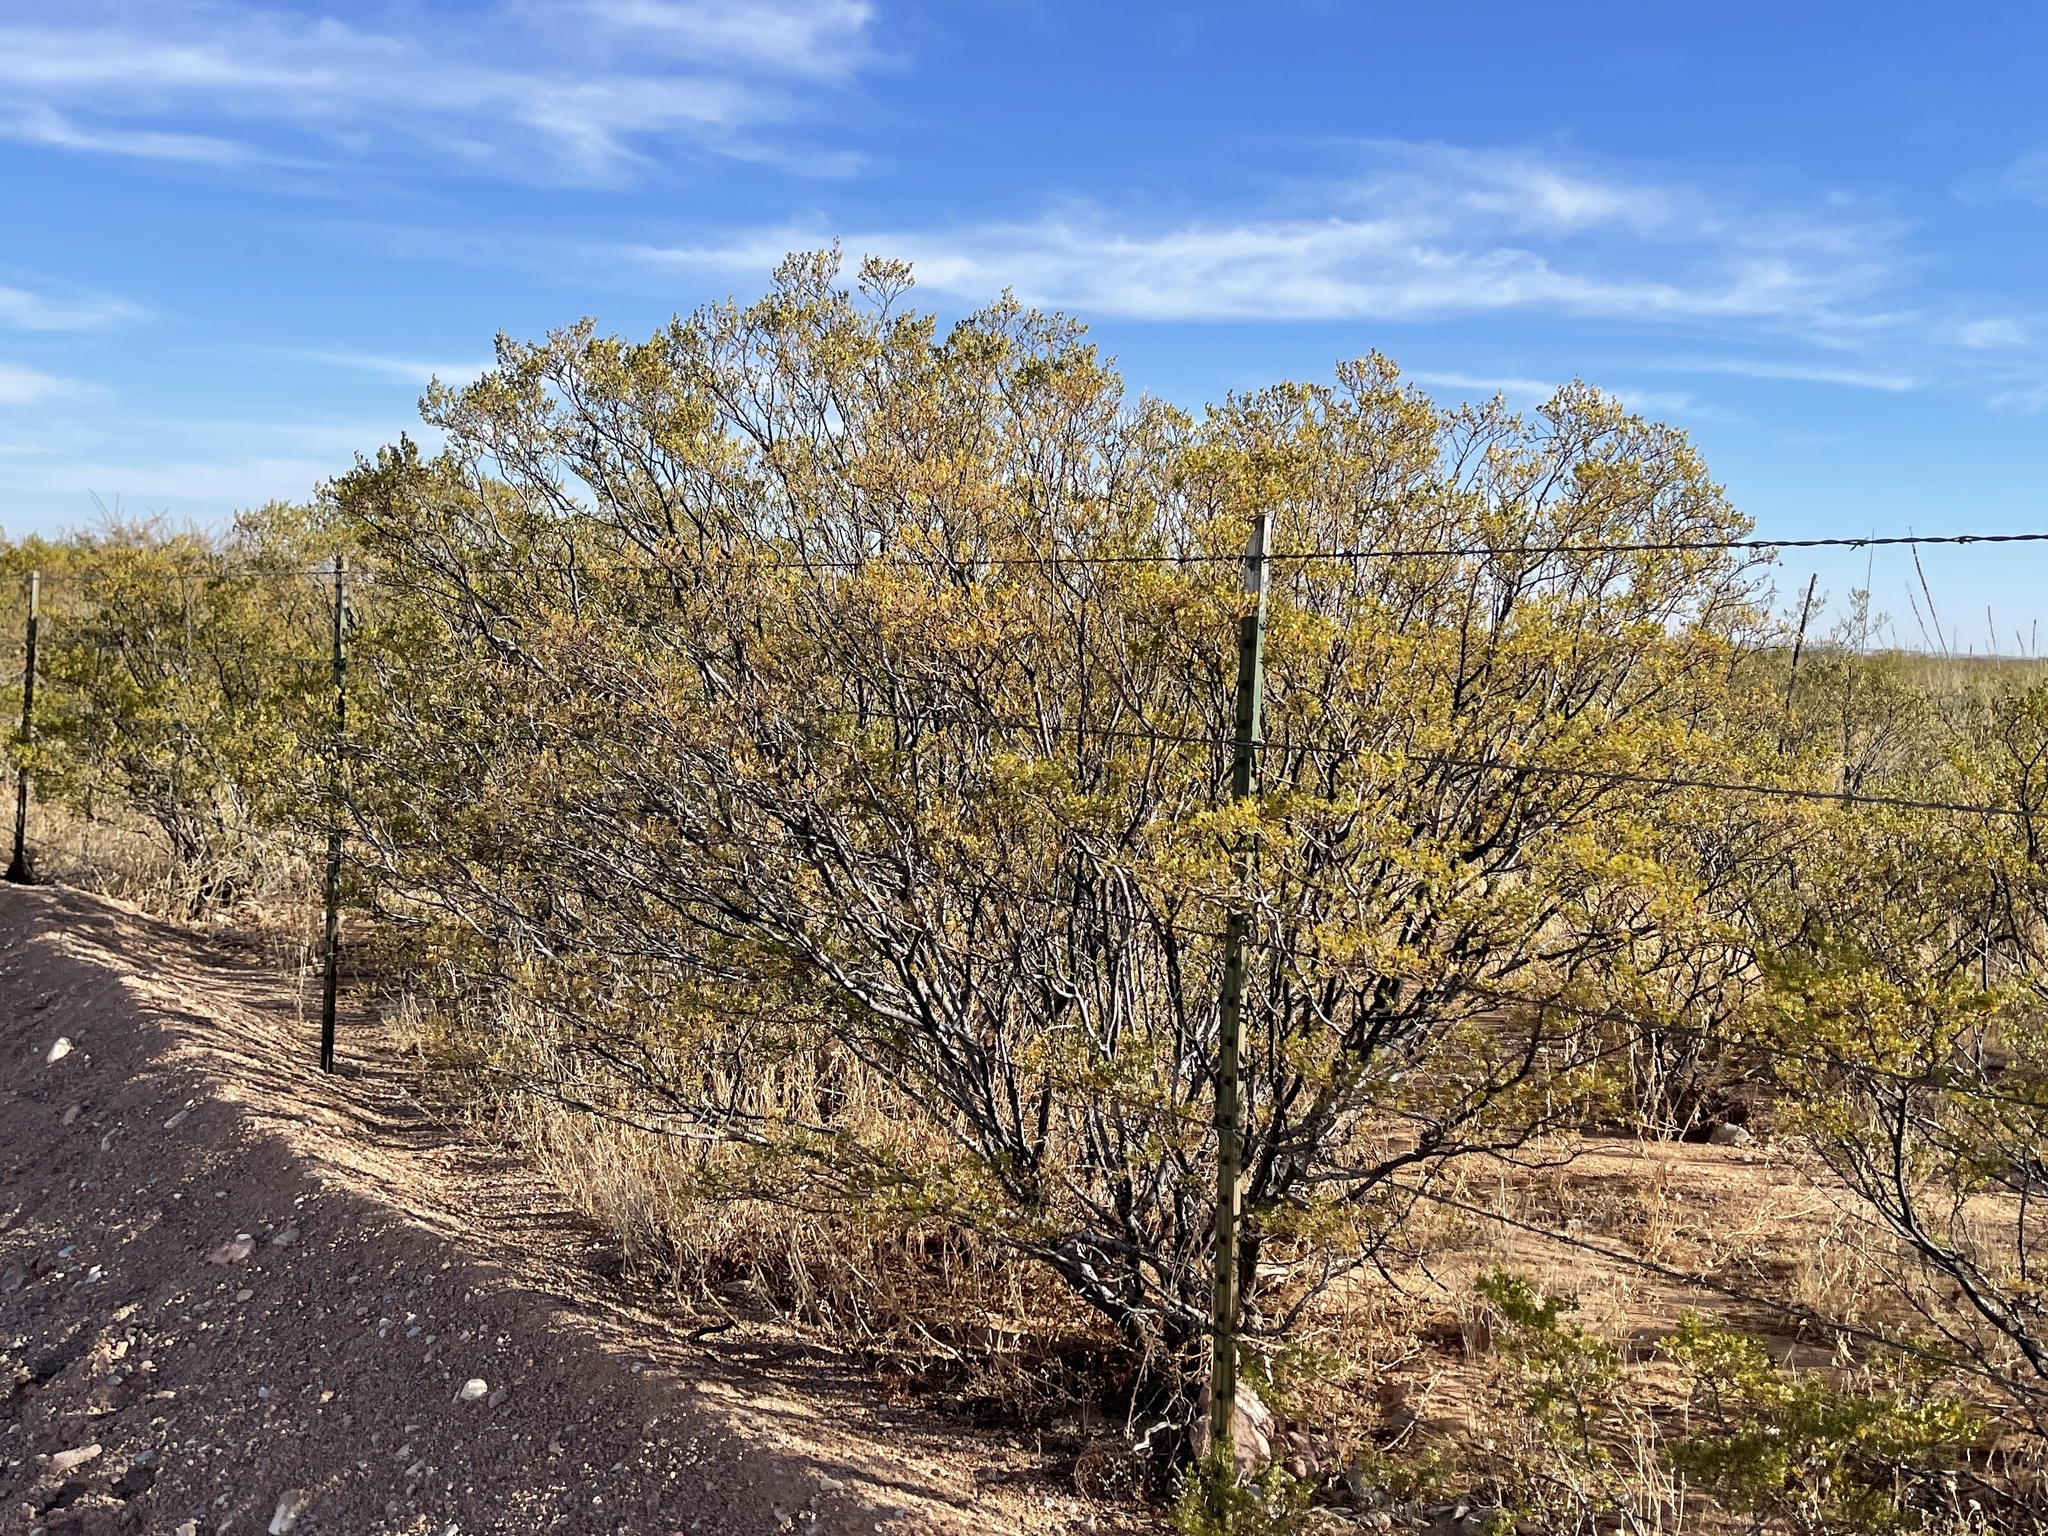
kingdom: Plantae
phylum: Tracheophyta
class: Magnoliopsida
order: Zygophyllales
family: Zygophyllaceae
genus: Larrea
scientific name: Larrea tridentata
